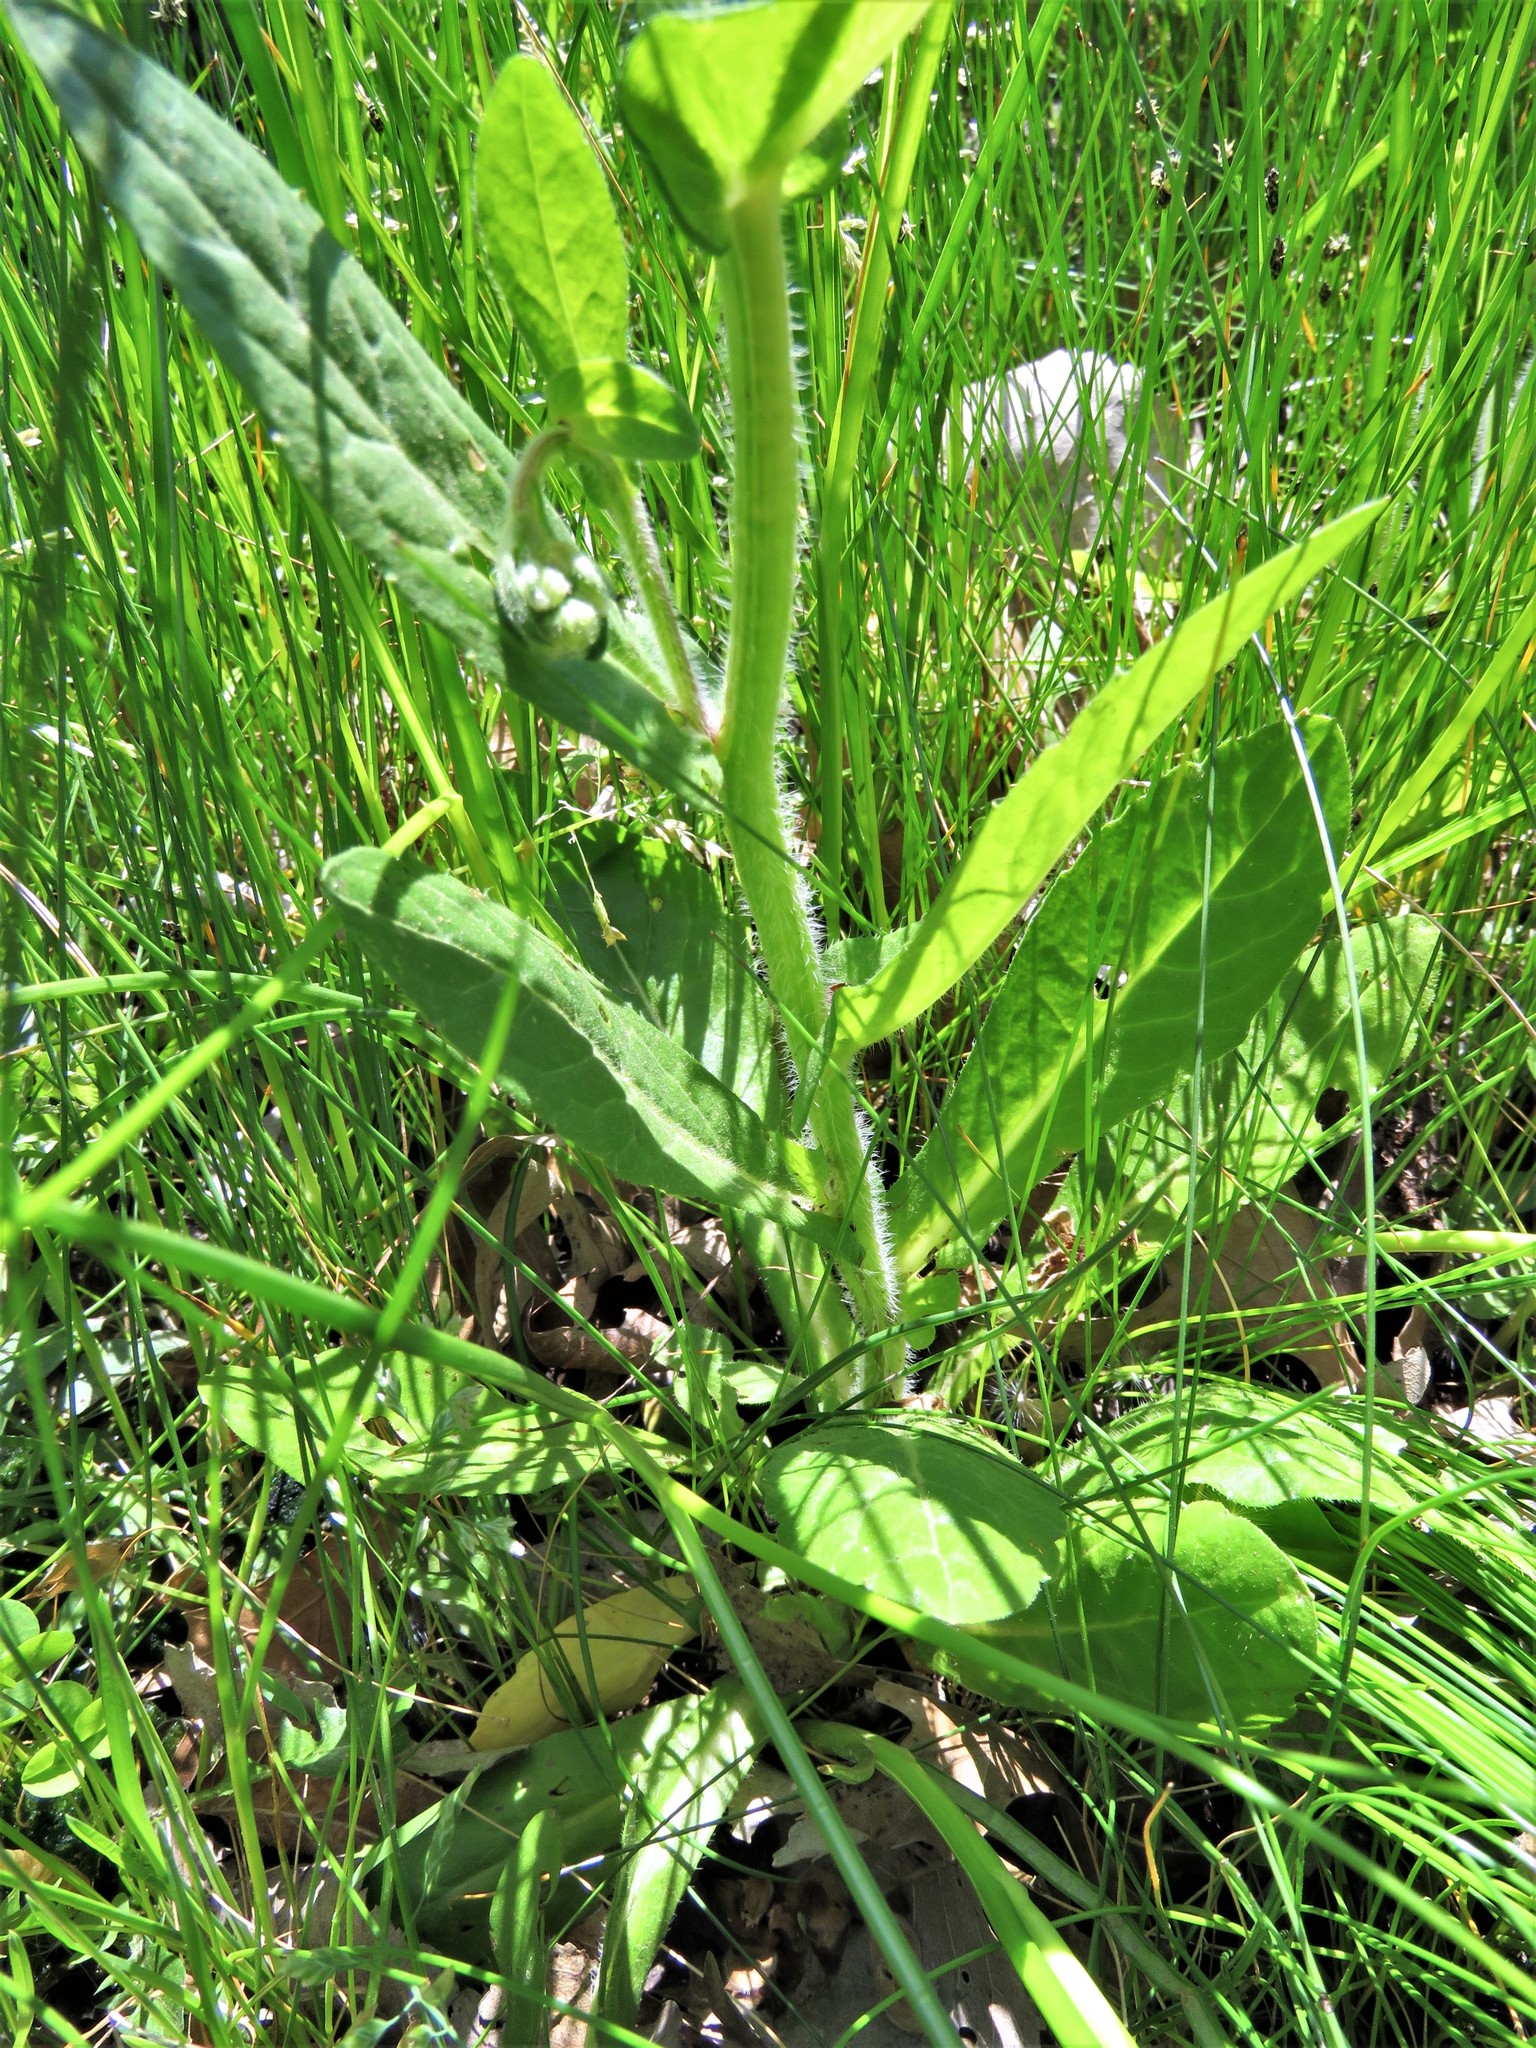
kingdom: Plantae
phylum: Tracheophyta
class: Magnoliopsida
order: Asterales
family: Asteraceae
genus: Erigeron
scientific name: Erigeron philadelphicus
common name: Robin's-plantain
